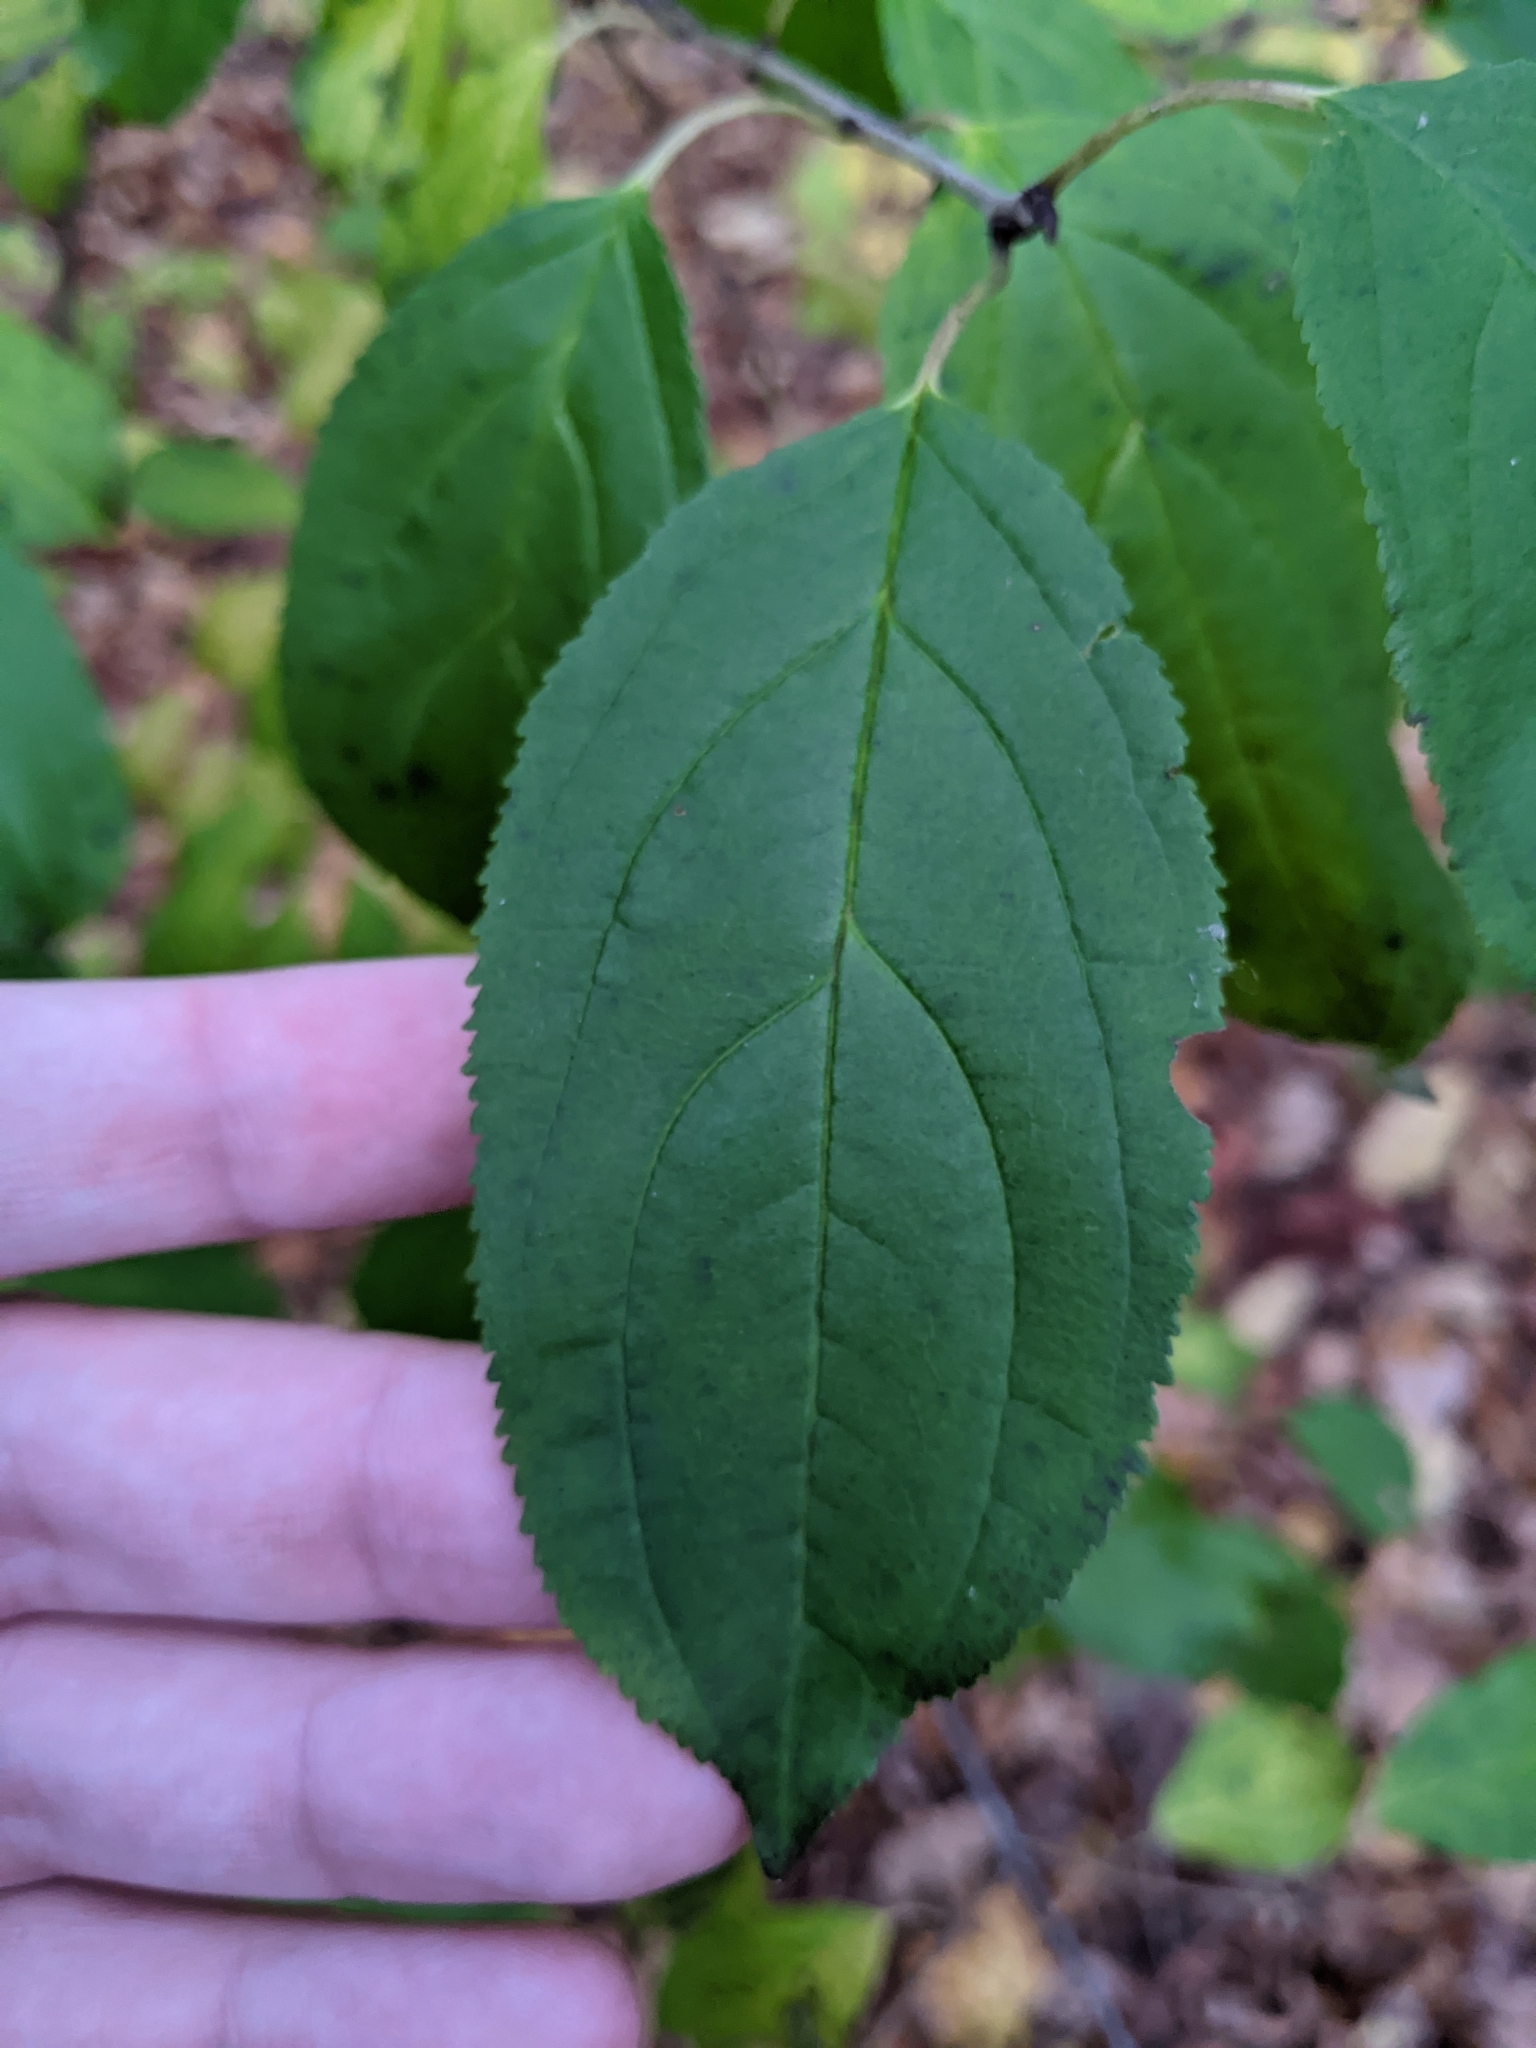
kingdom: Plantae
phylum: Tracheophyta
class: Magnoliopsida
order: Rosales
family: Rhamnaceae
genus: Rhamnus
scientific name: Rhamnus cathartica
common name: Common buckthorn
